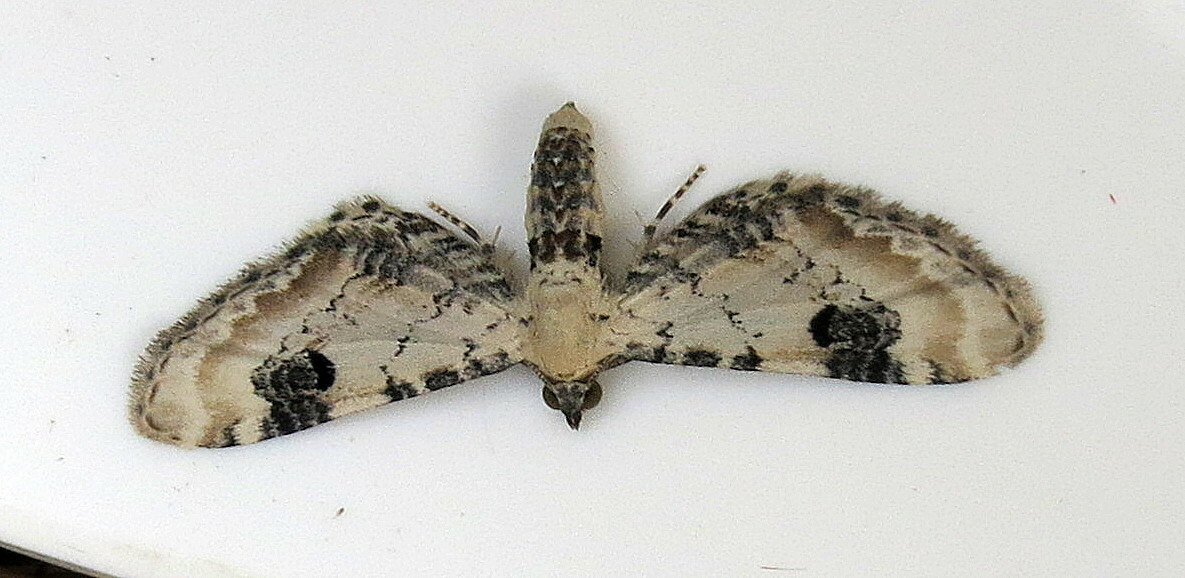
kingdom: Animalia
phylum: Arthropoda
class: Insecta
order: Lepidoptera
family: Geometridae
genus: Eupithecia
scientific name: Eupithecia centaureata
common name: Lime-speck pug
